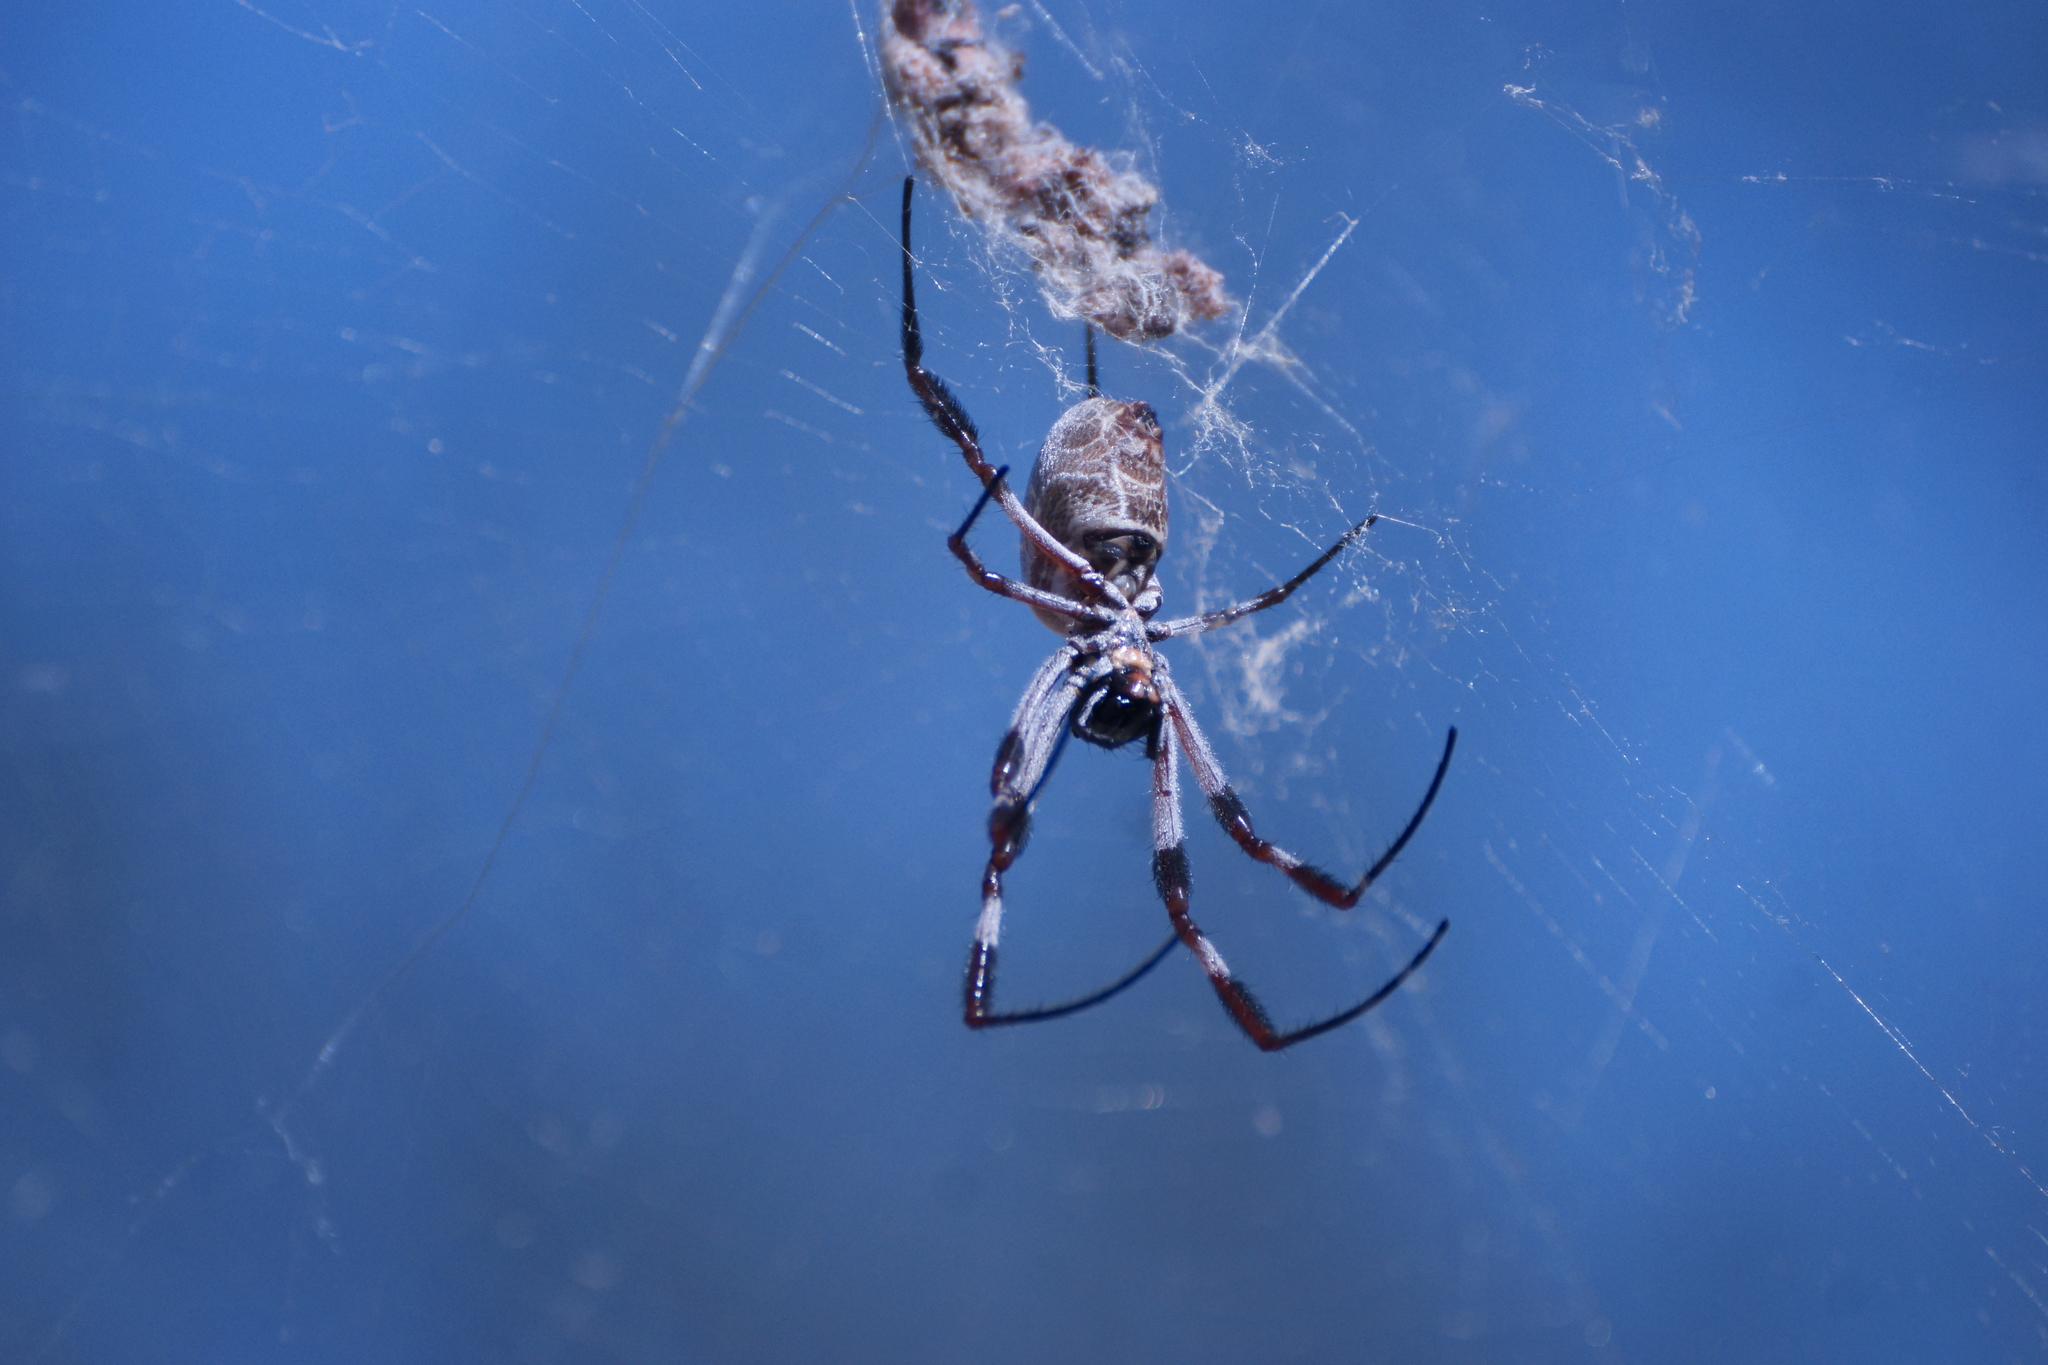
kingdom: Animalia
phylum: Arthropoda
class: Arachnida
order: Araneae
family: Araneidae
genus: Trichonephila
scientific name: Trichonephila edulis
